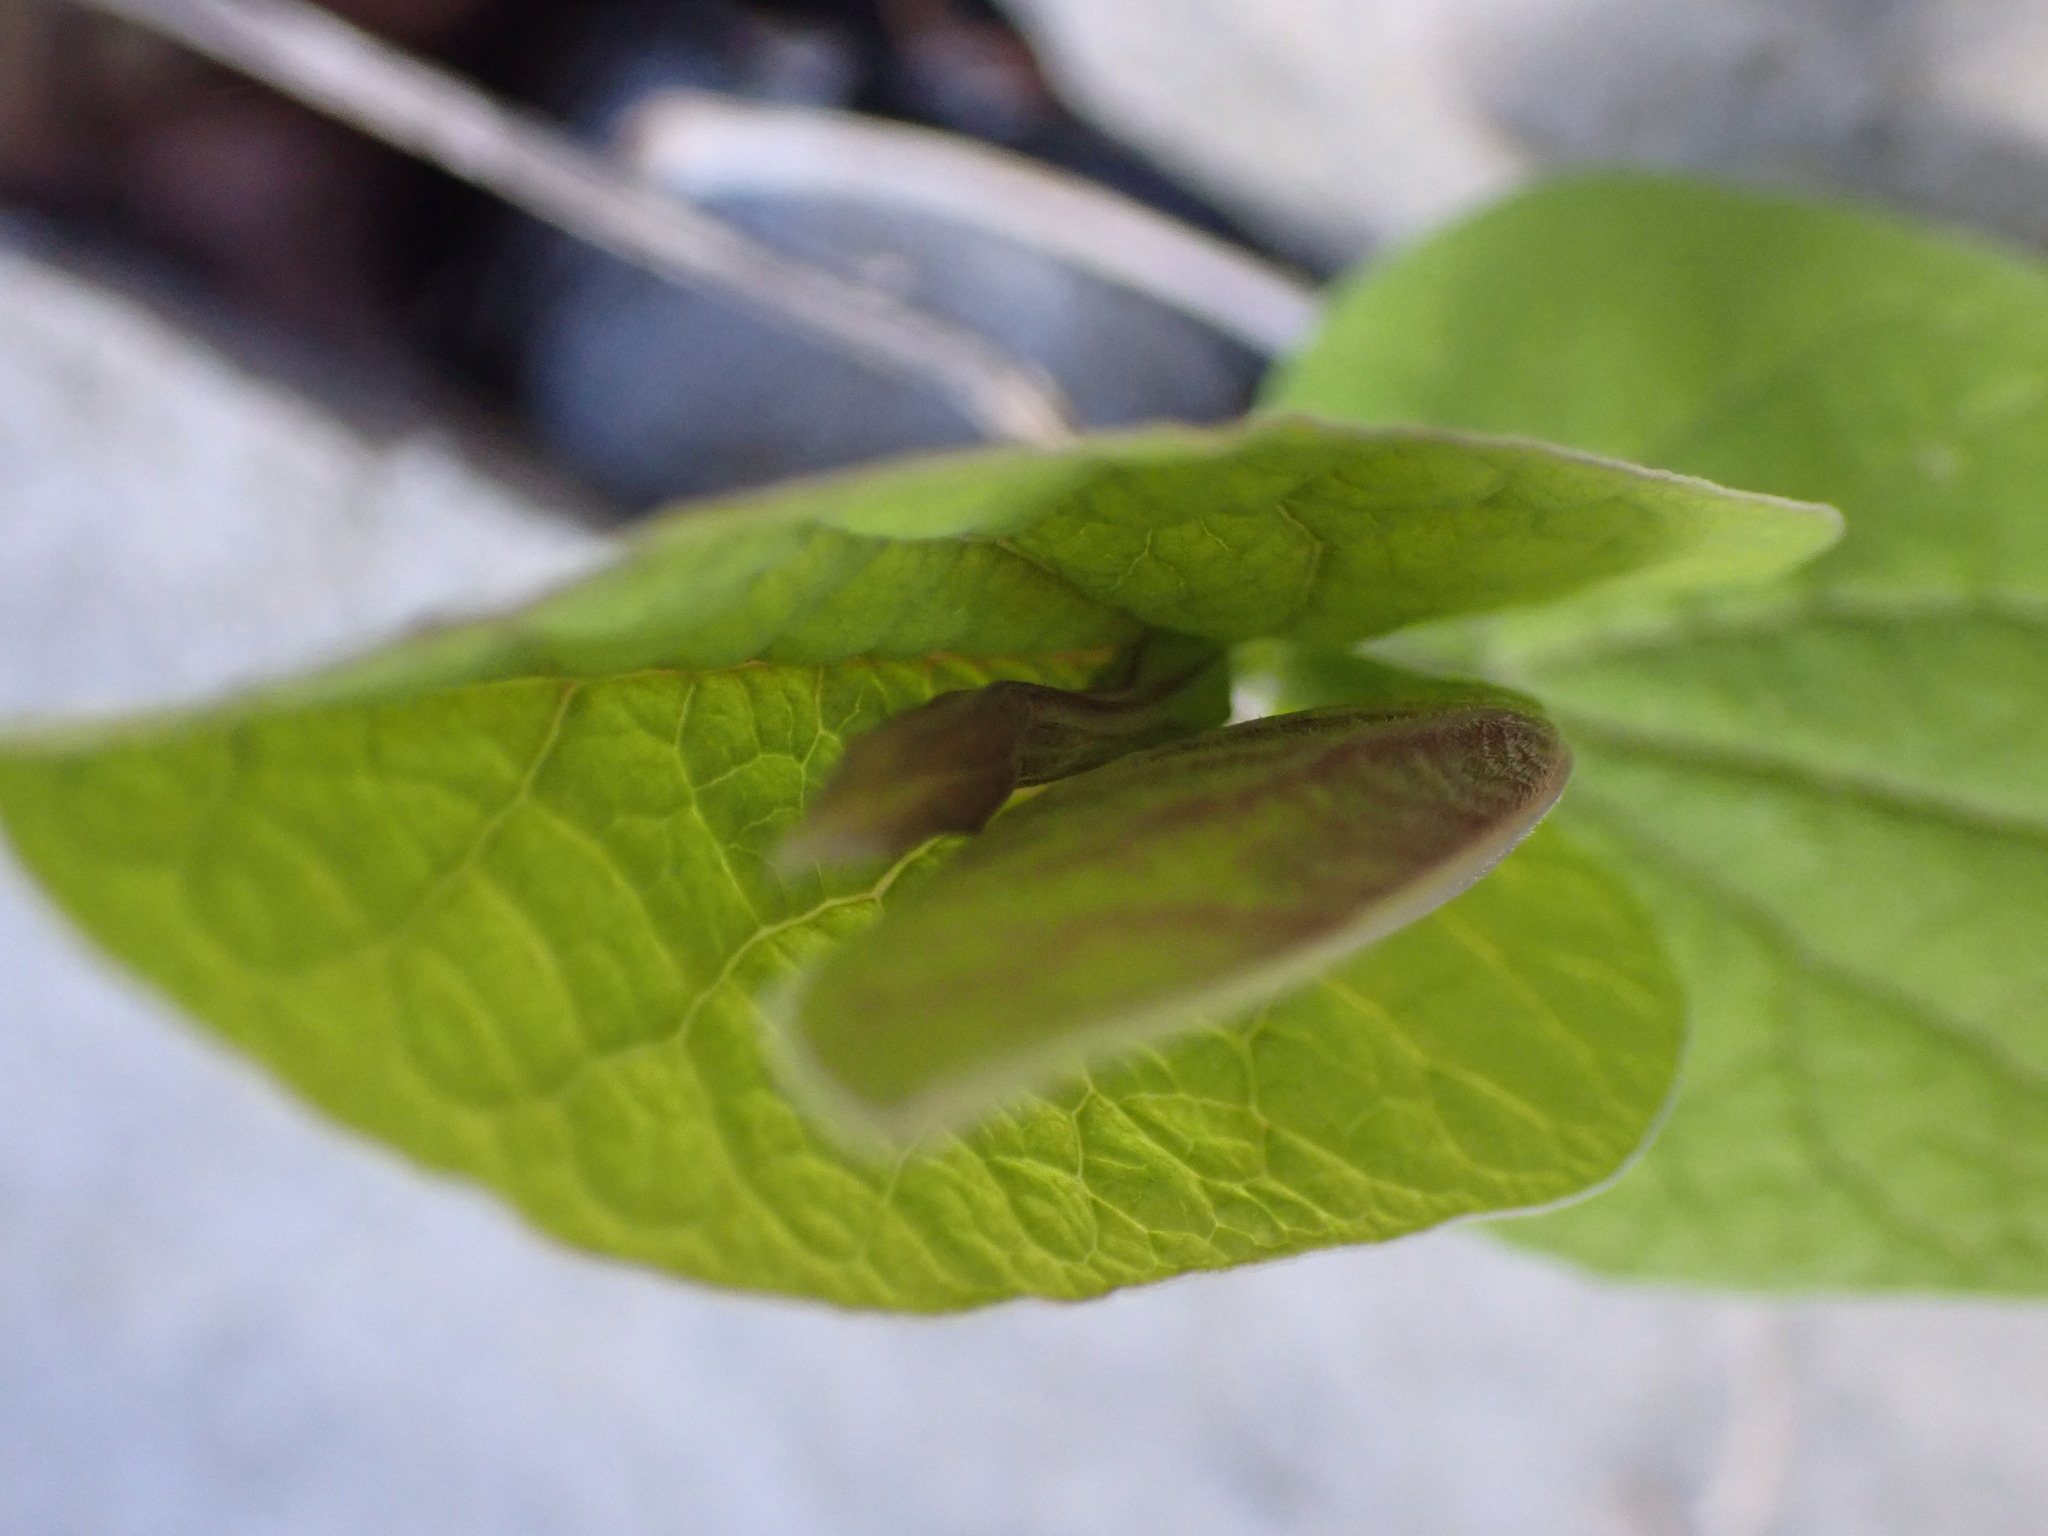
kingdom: Plantae
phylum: Tracheophyta
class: Magnoliopsida
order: Piperales
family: Aristolochiaceae
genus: Aristolochia
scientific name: Aristolochia rotunda
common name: Smearwort
